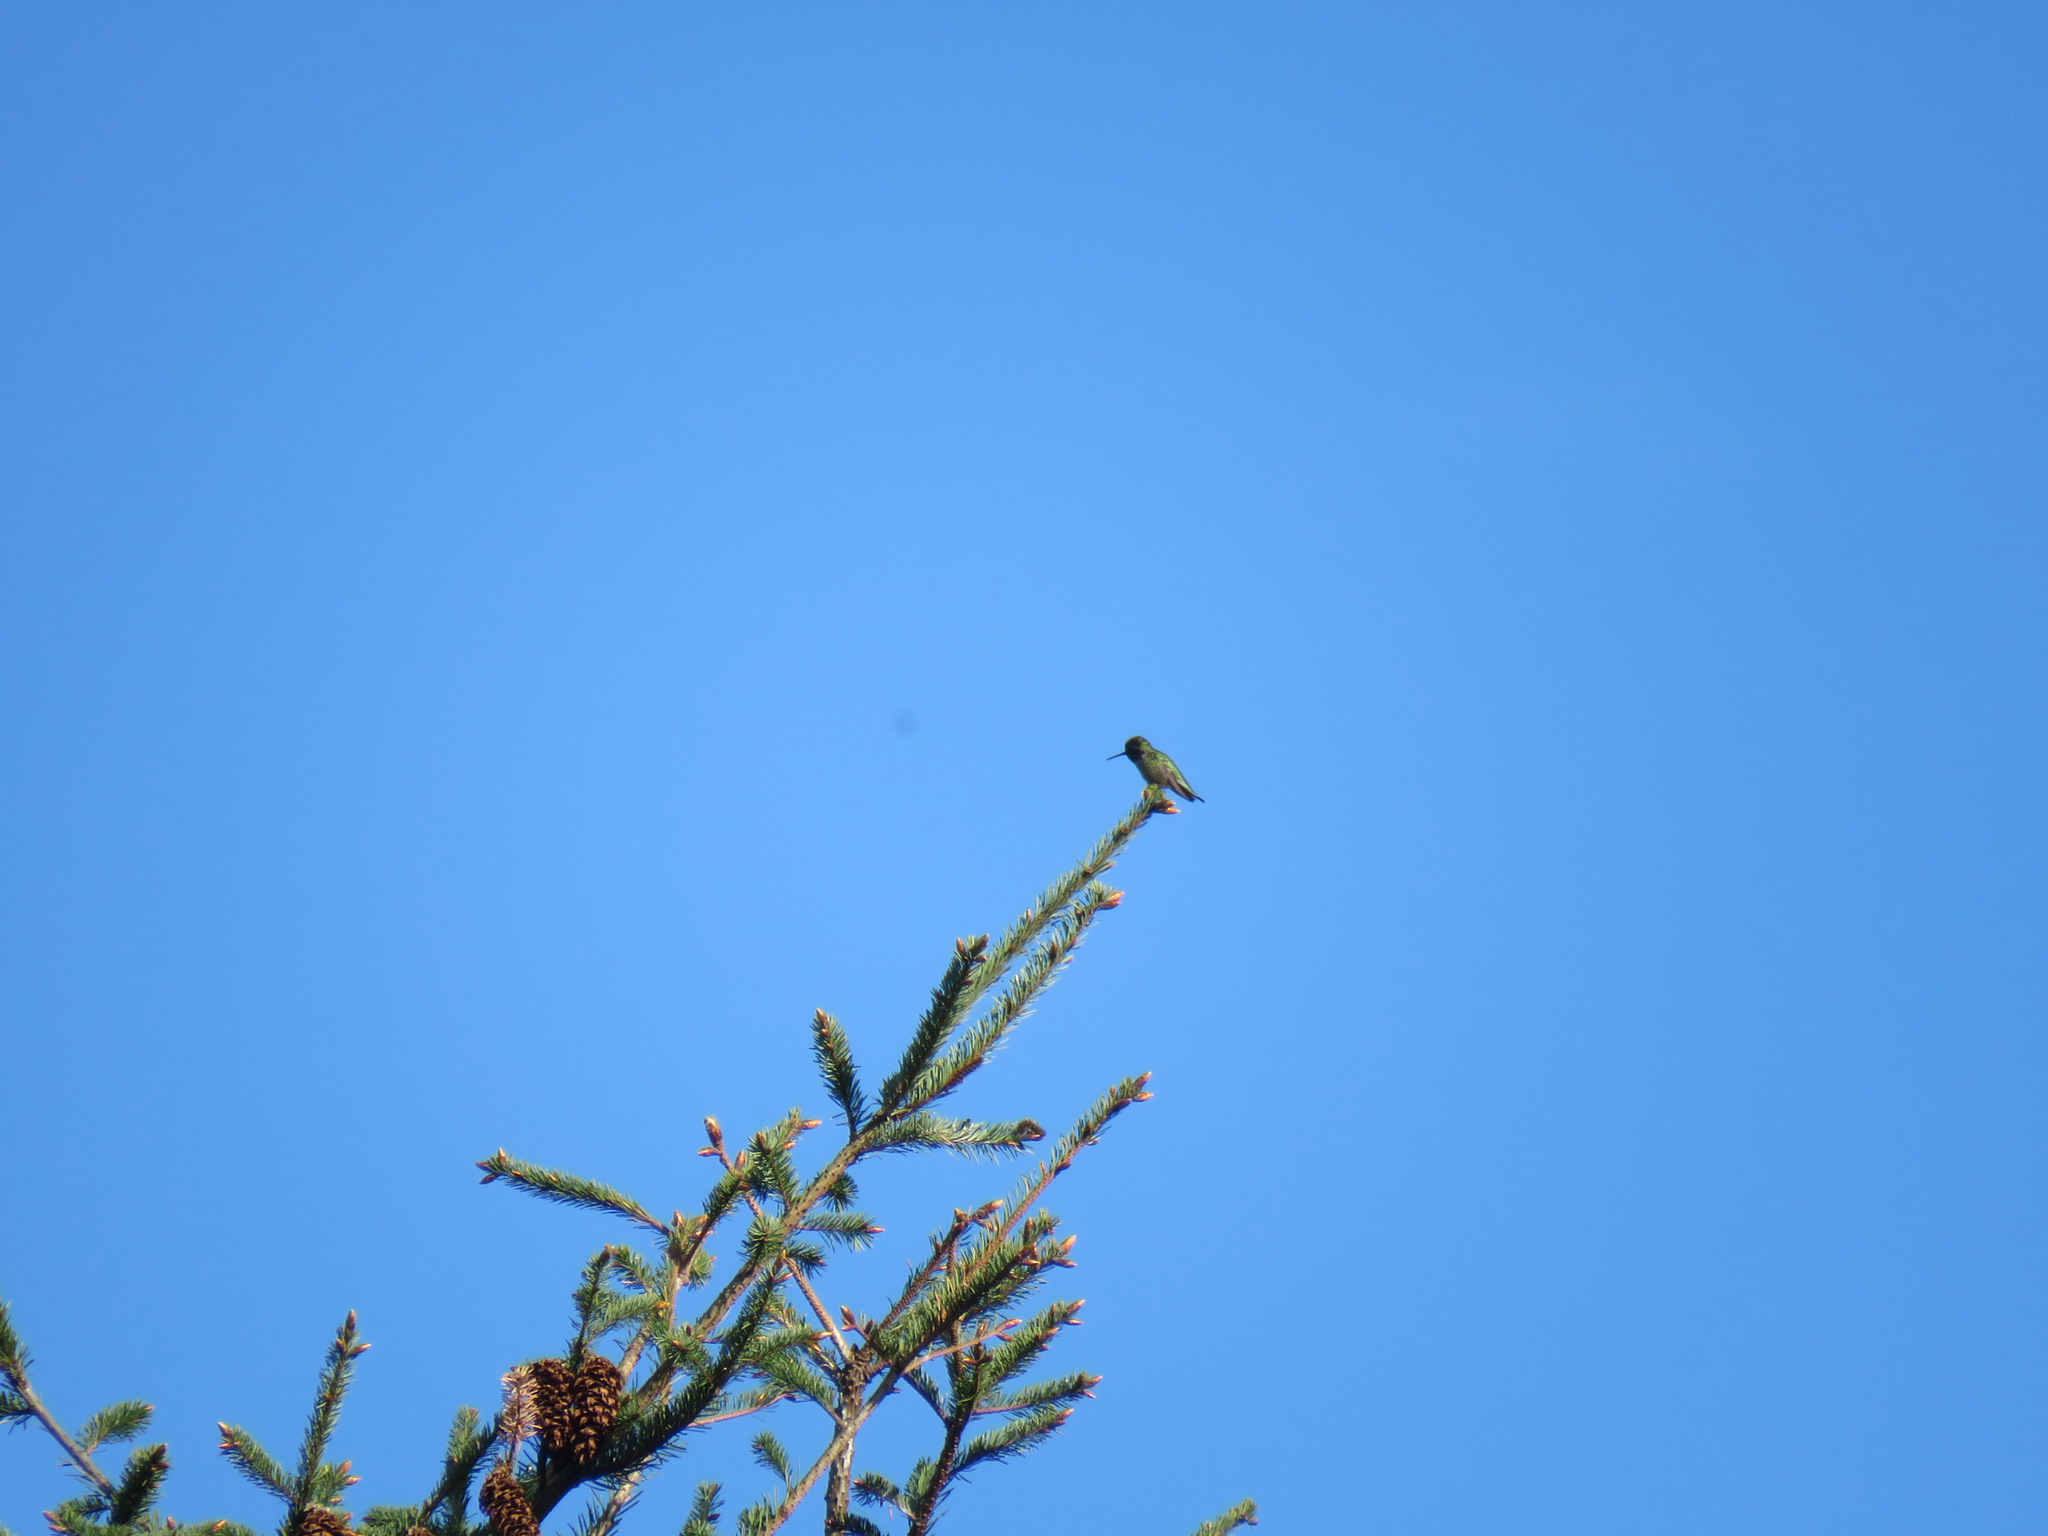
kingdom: Animalia
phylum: Chordata
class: Aves
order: Apodiformes
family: Trochilidae
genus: Calypte
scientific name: Calypte anna
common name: Anna's hummingbird
